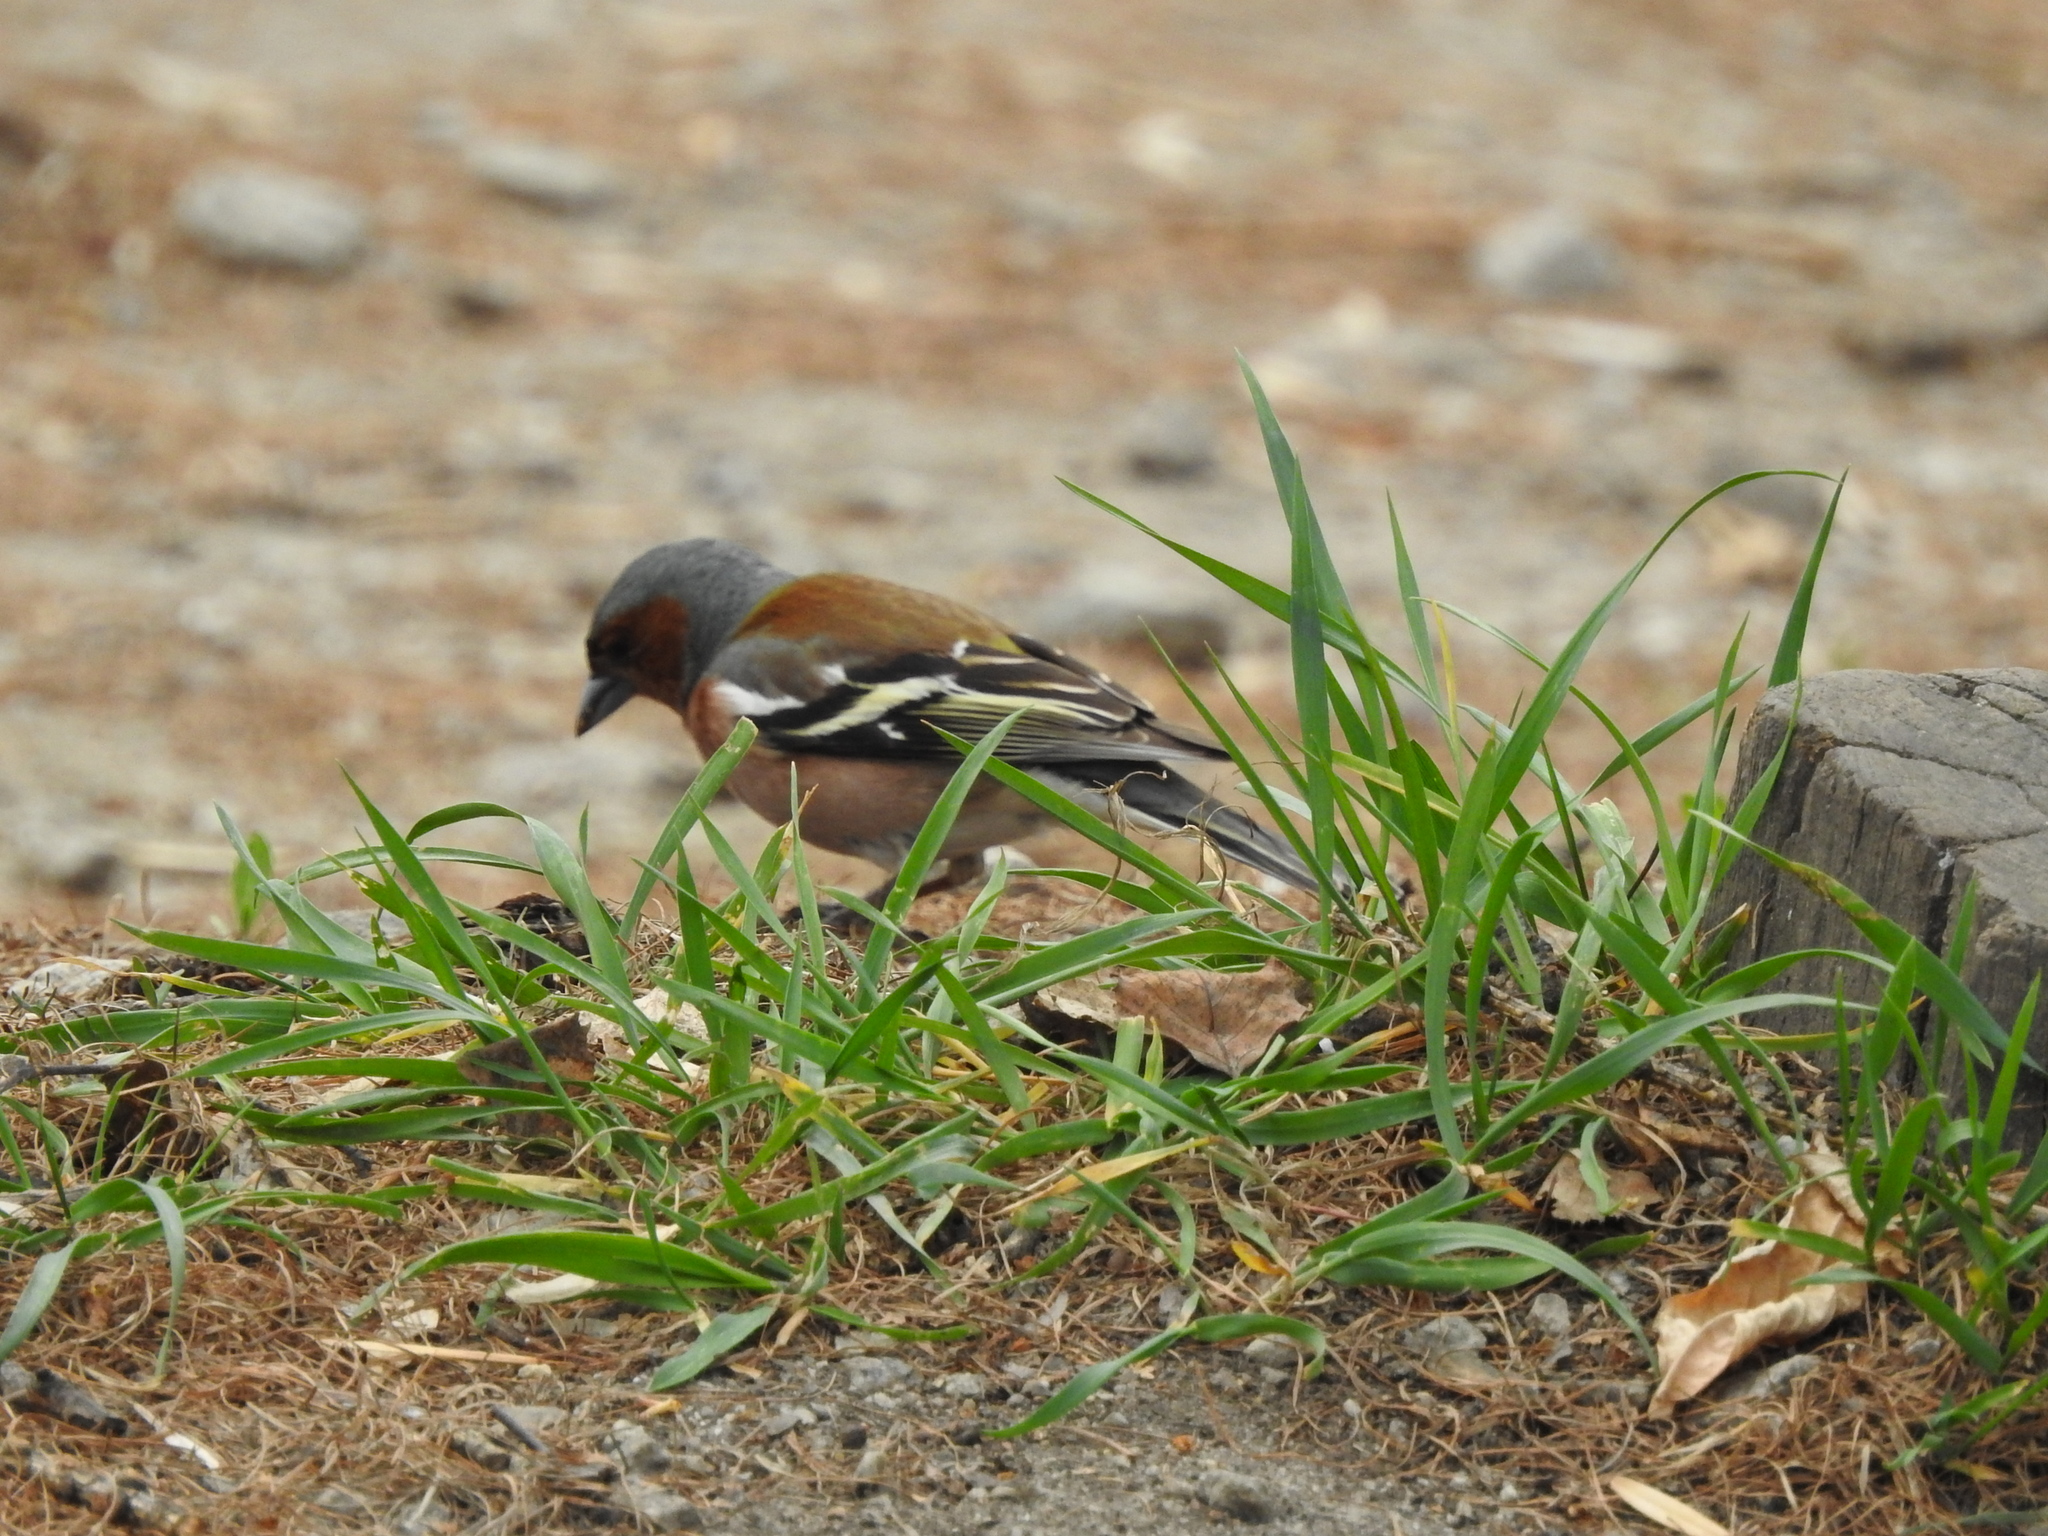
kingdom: Animalia
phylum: Chordata
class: Aves
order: Passeriformes
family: Fringillidae
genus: Fringilla
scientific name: Fringilla coelebs
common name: Common chaffinch
